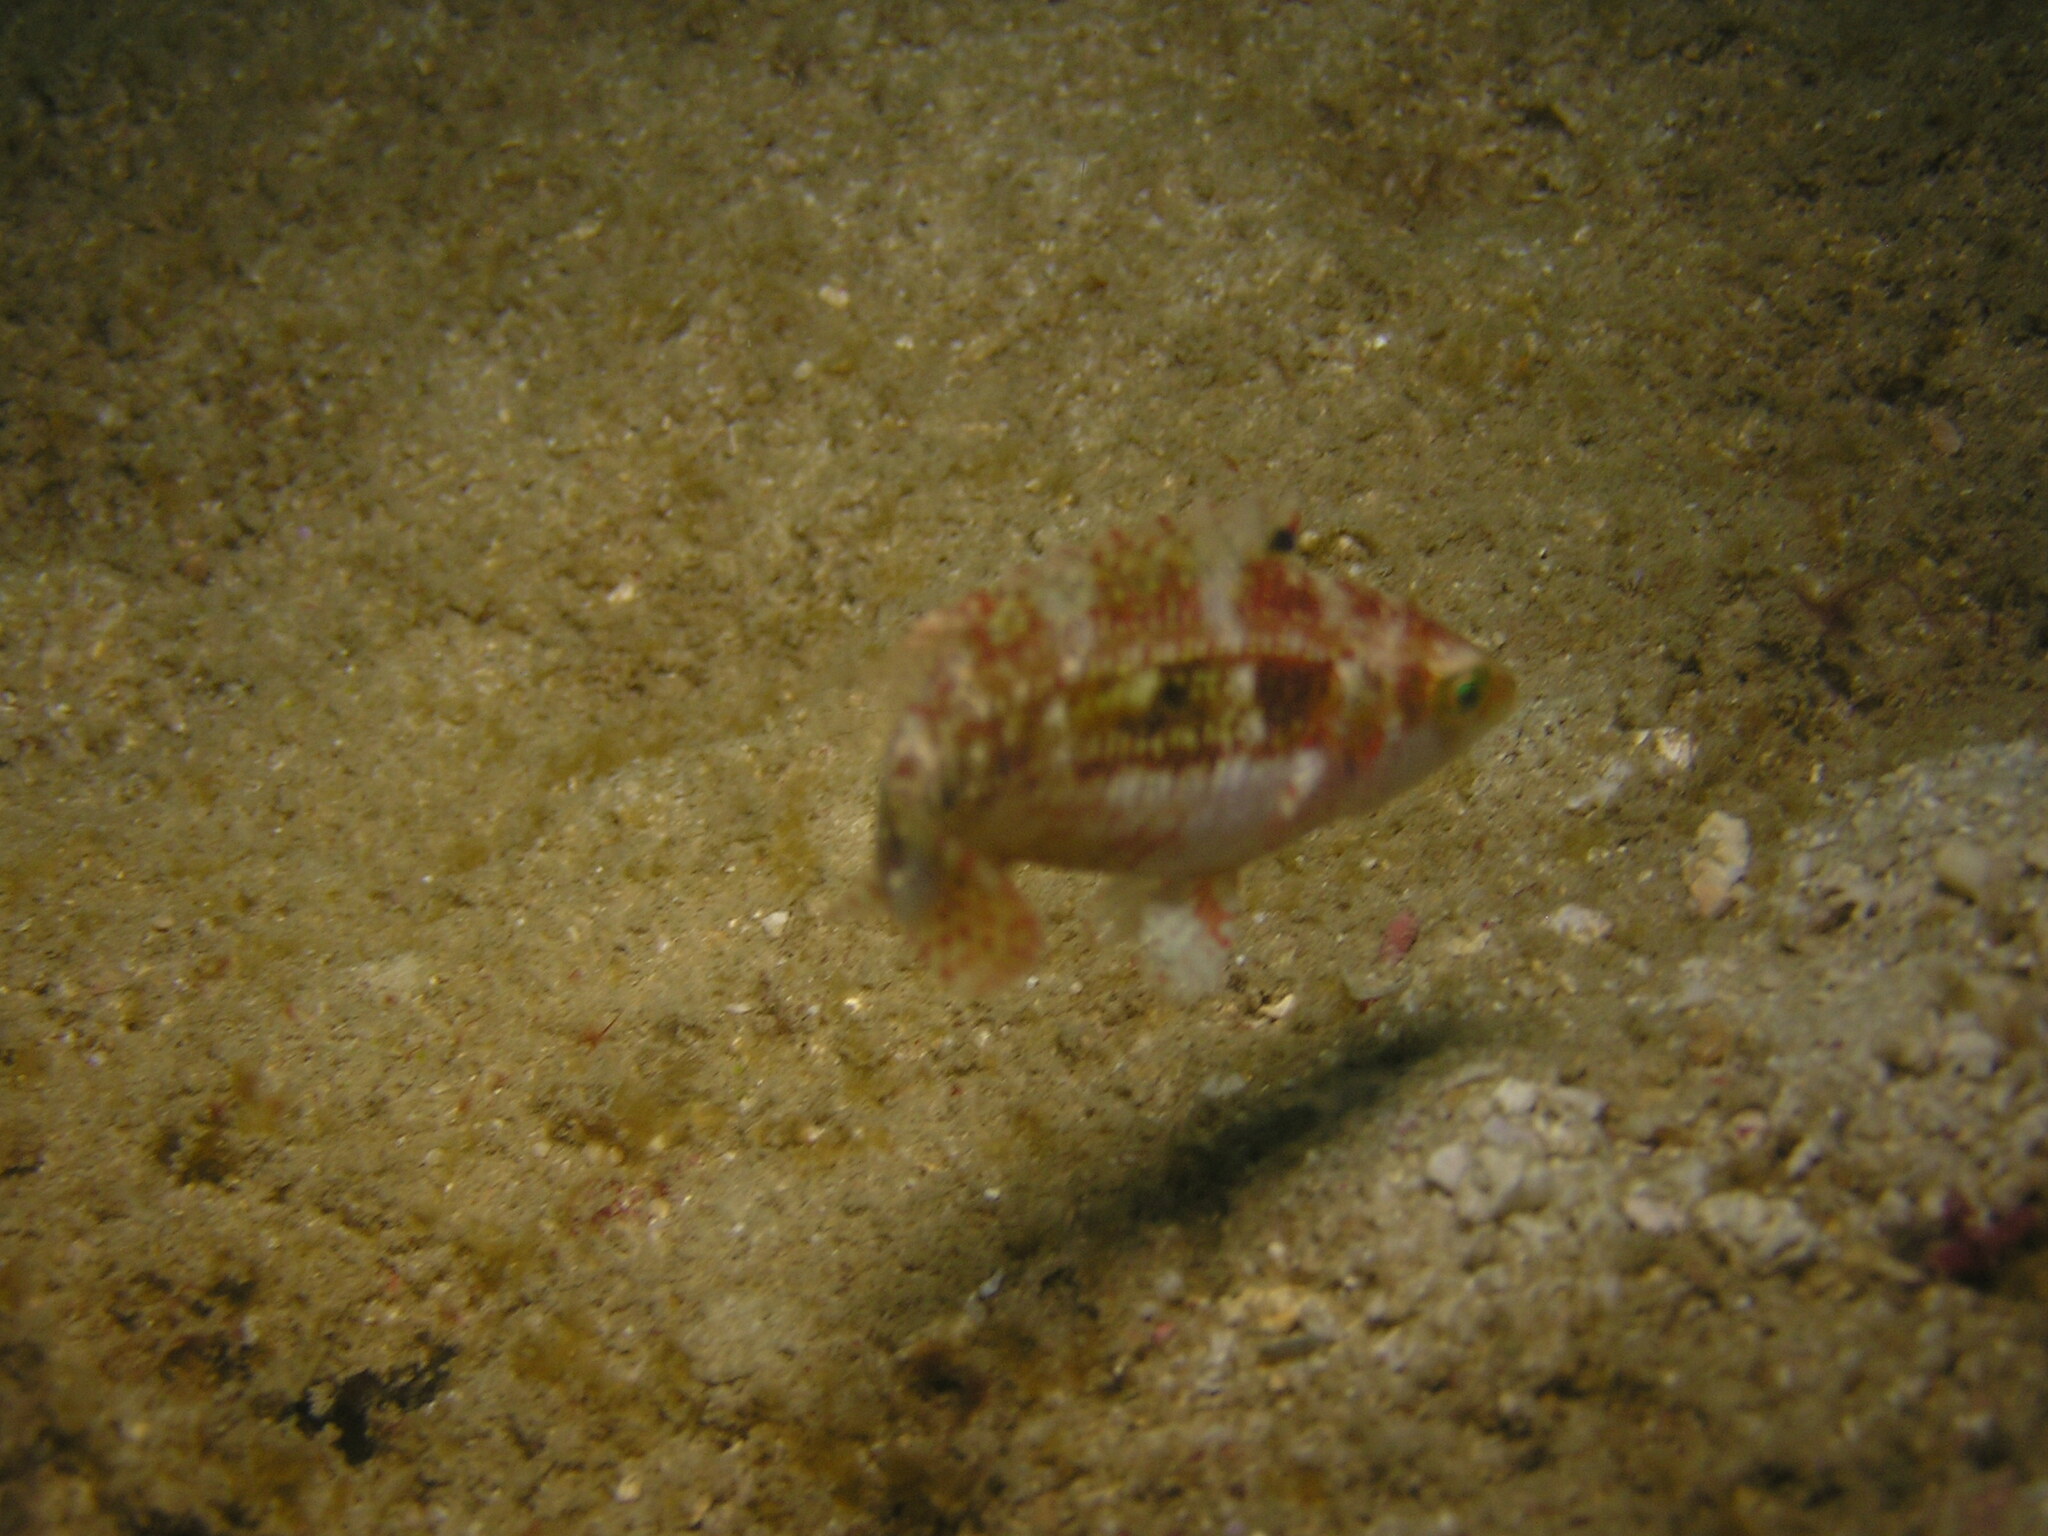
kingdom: Animalia
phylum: Chordata
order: Perciformes
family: Labridae
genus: Oxycheilinus
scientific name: Oxycheilinus bimaculatus
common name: Comettailed wrasse
